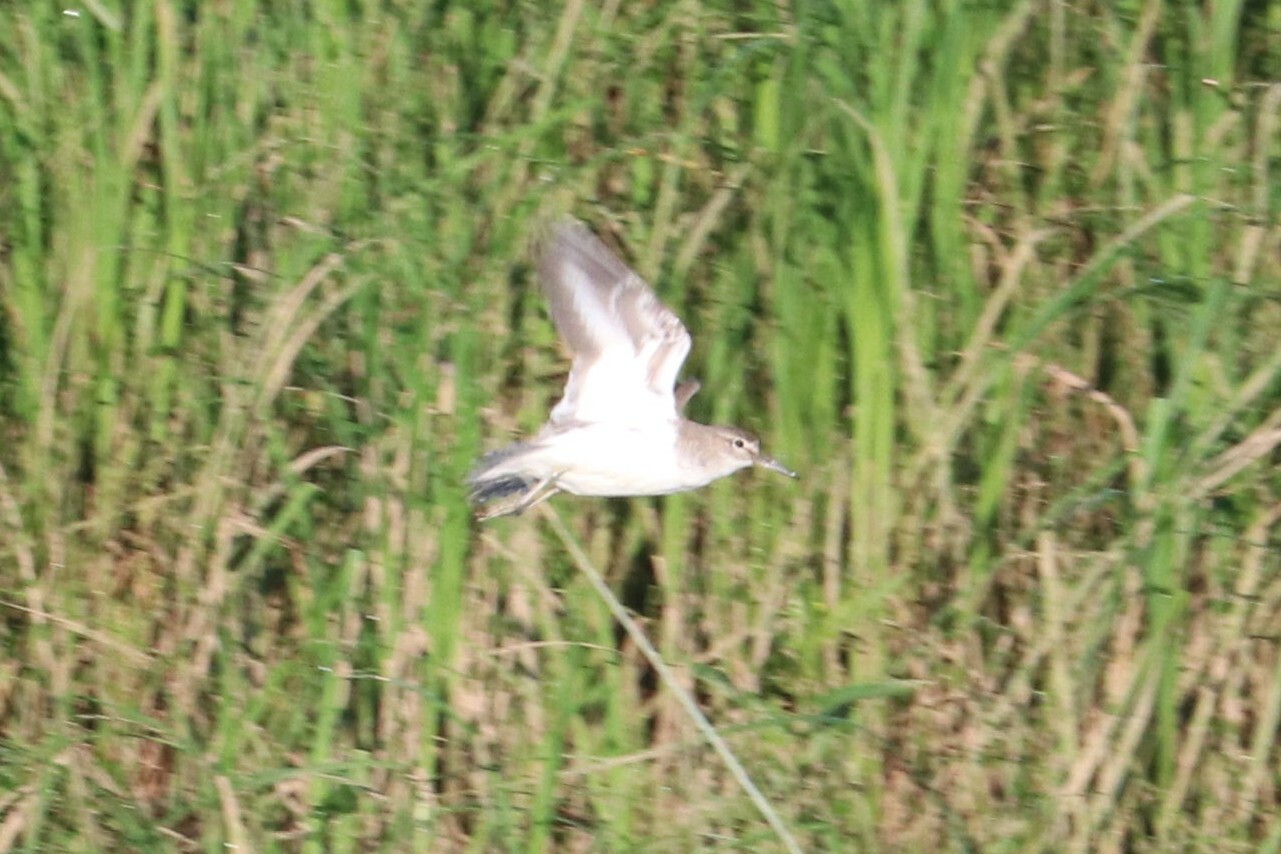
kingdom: Animalia
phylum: Chordata
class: Aves
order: Charadriiformes
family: Scolopacidae
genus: Actitis
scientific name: Actitis hypoleucos
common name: Common sandpiper
